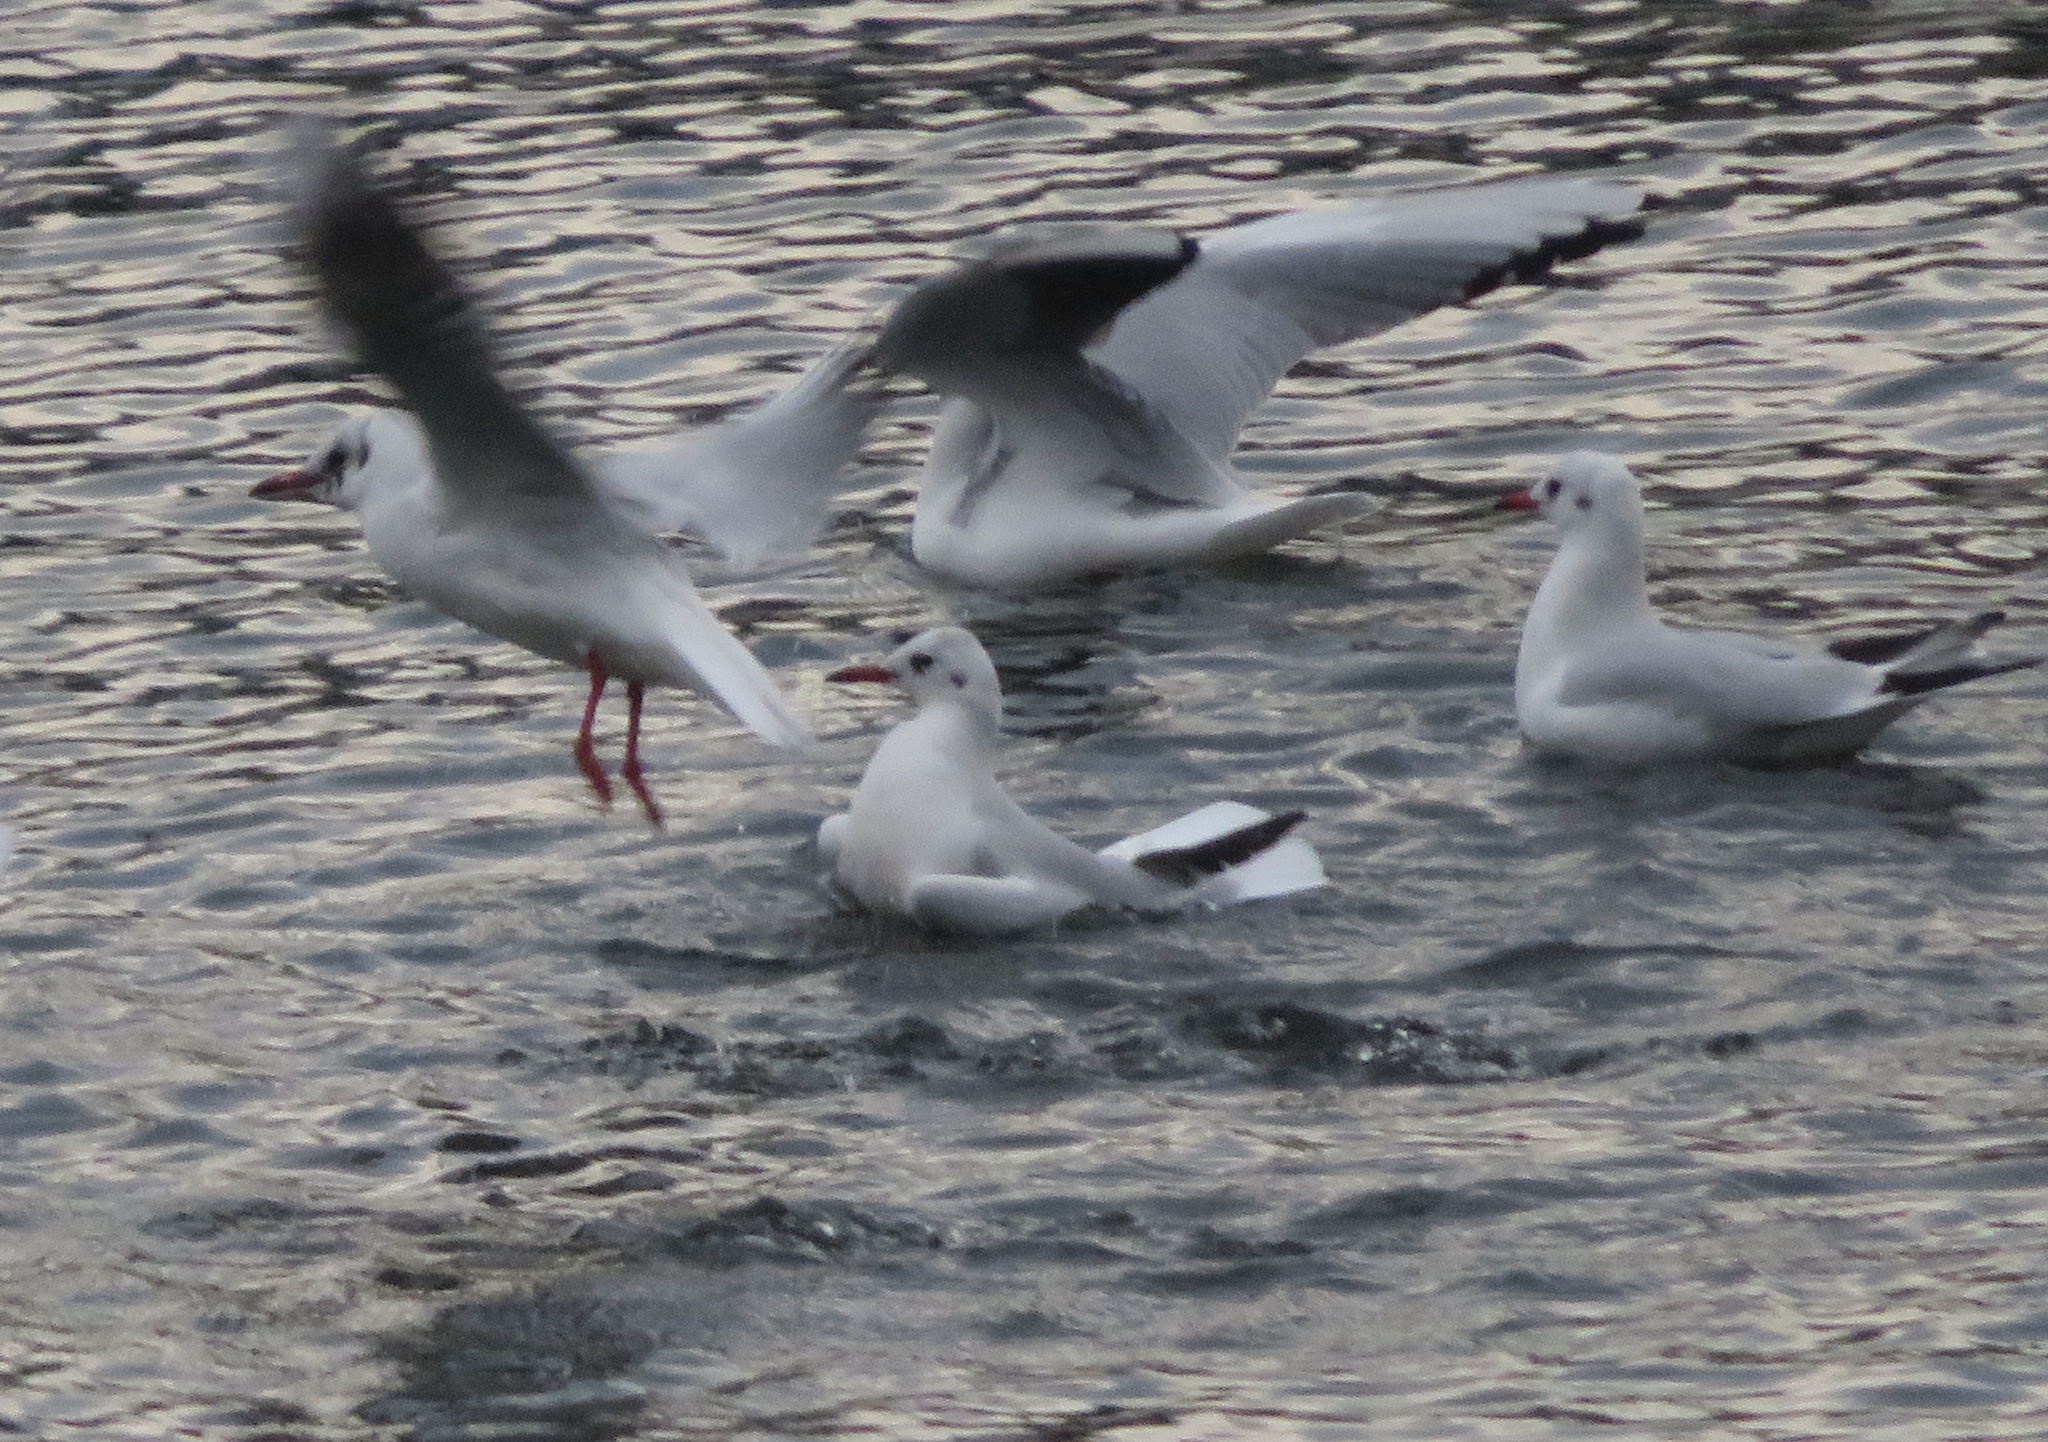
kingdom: Animalia
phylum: Chordata
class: Aves
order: Charadriiformes
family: Laridae
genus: Chroicocephalus
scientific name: Chroicocephalus ridibundus
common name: Black-headed gull
